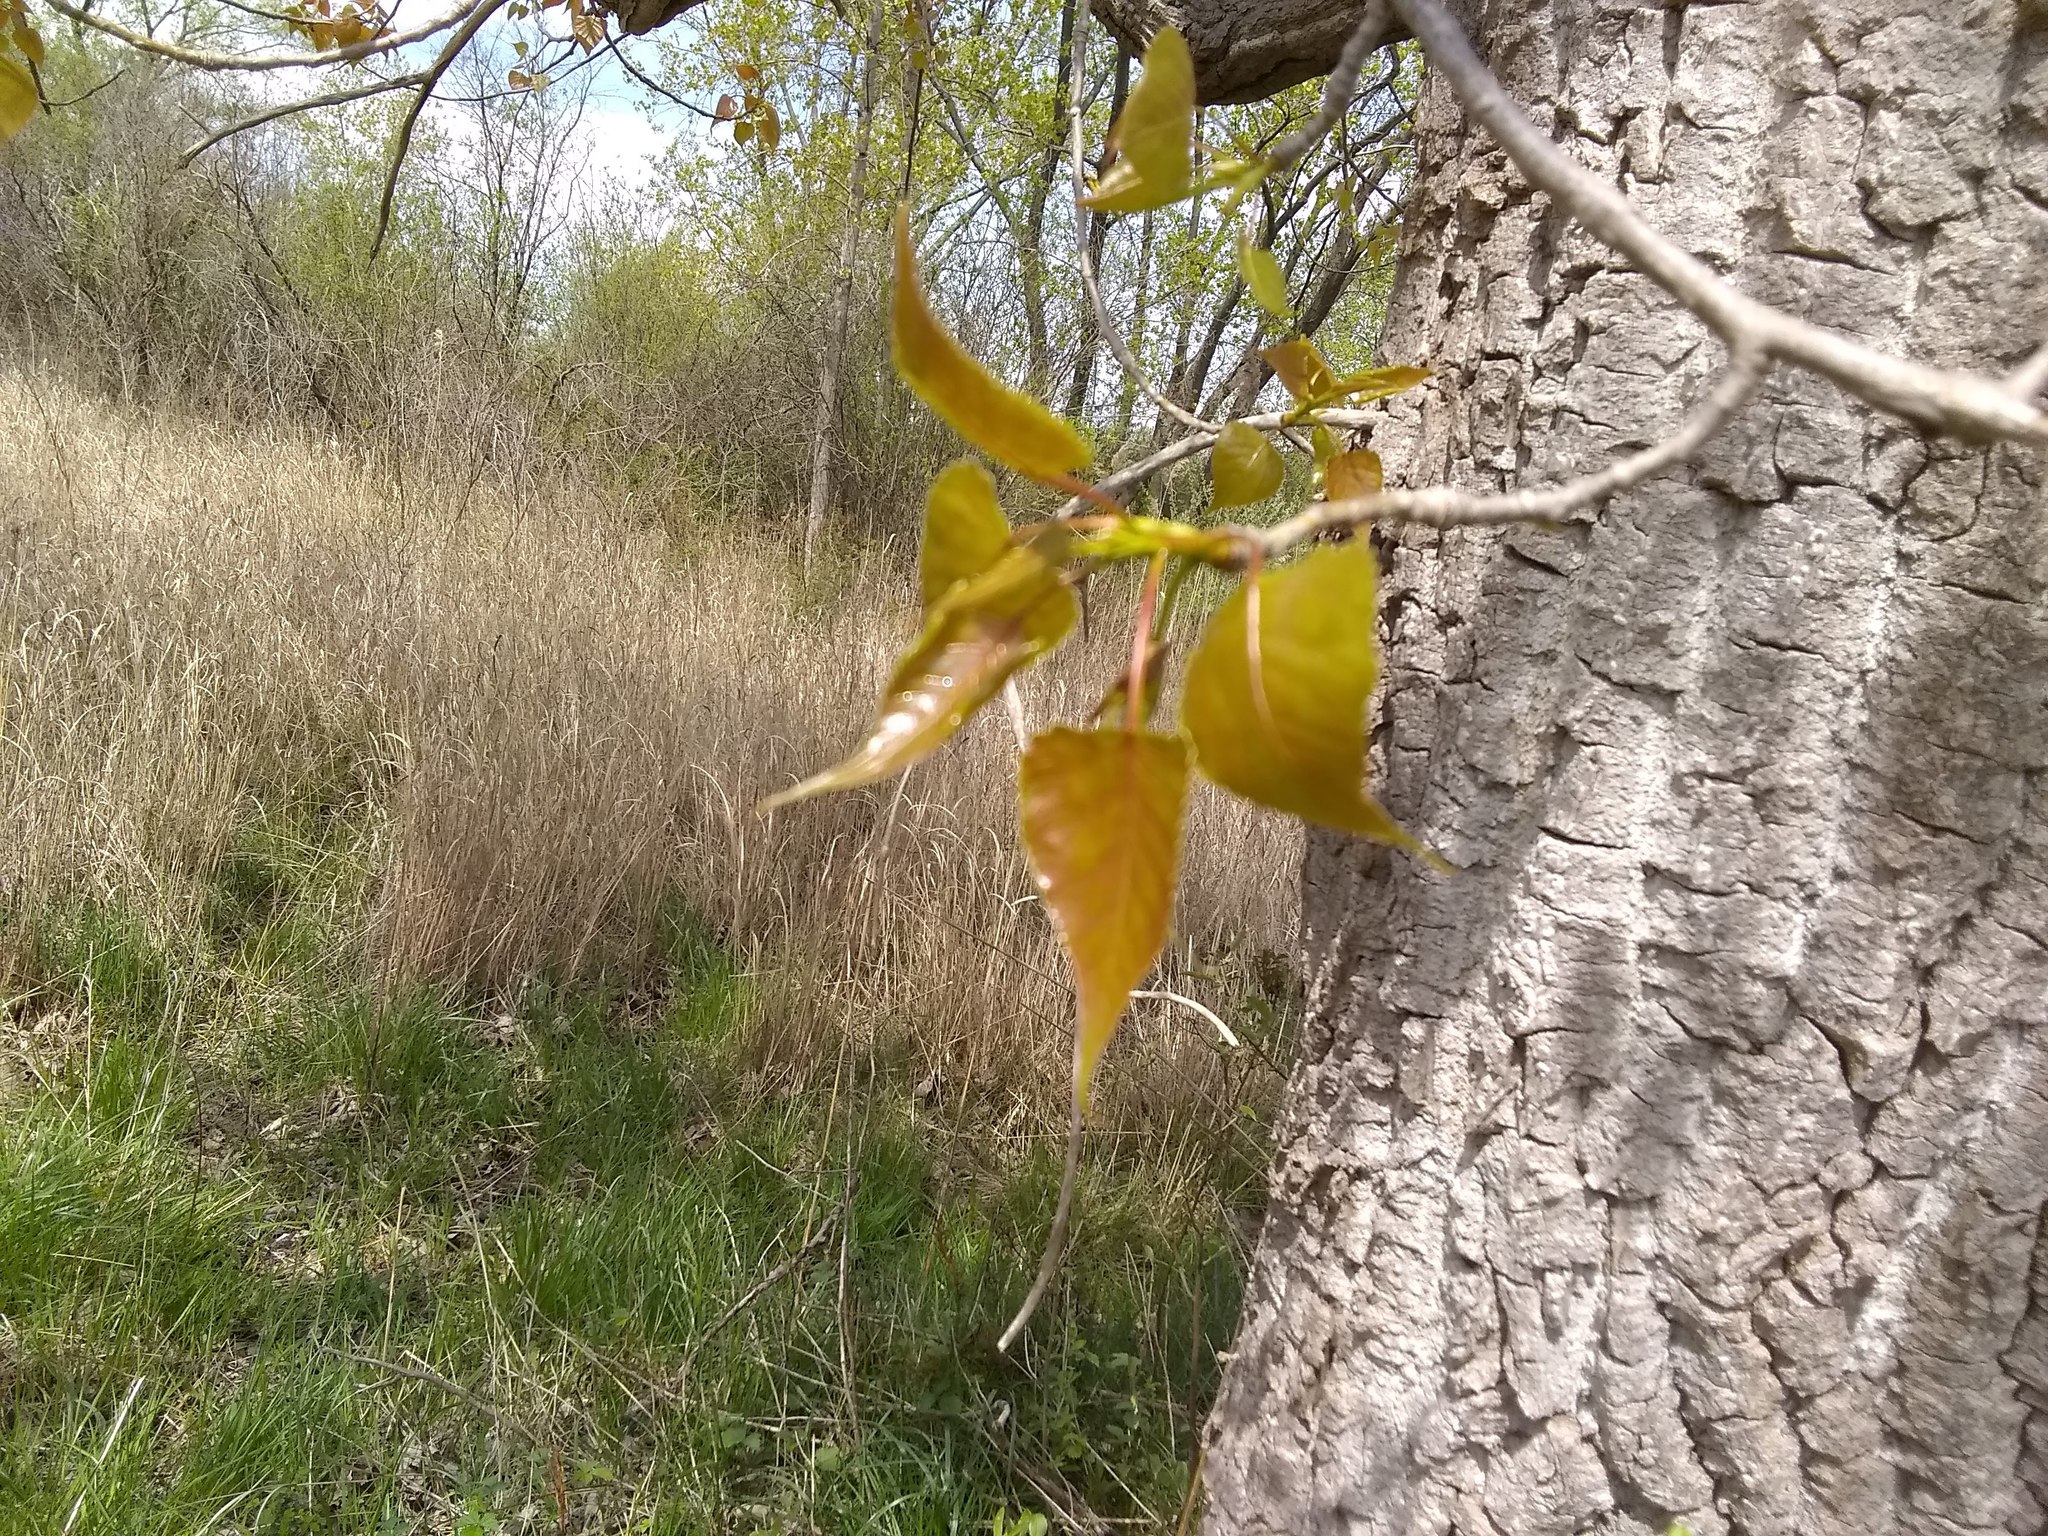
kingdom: Plantae
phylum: Tracheophyta
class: Magnoliopsida
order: Malpighiales
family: Salicaceae
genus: Populus
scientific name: Populus deltoides
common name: Eastern cottonwood
